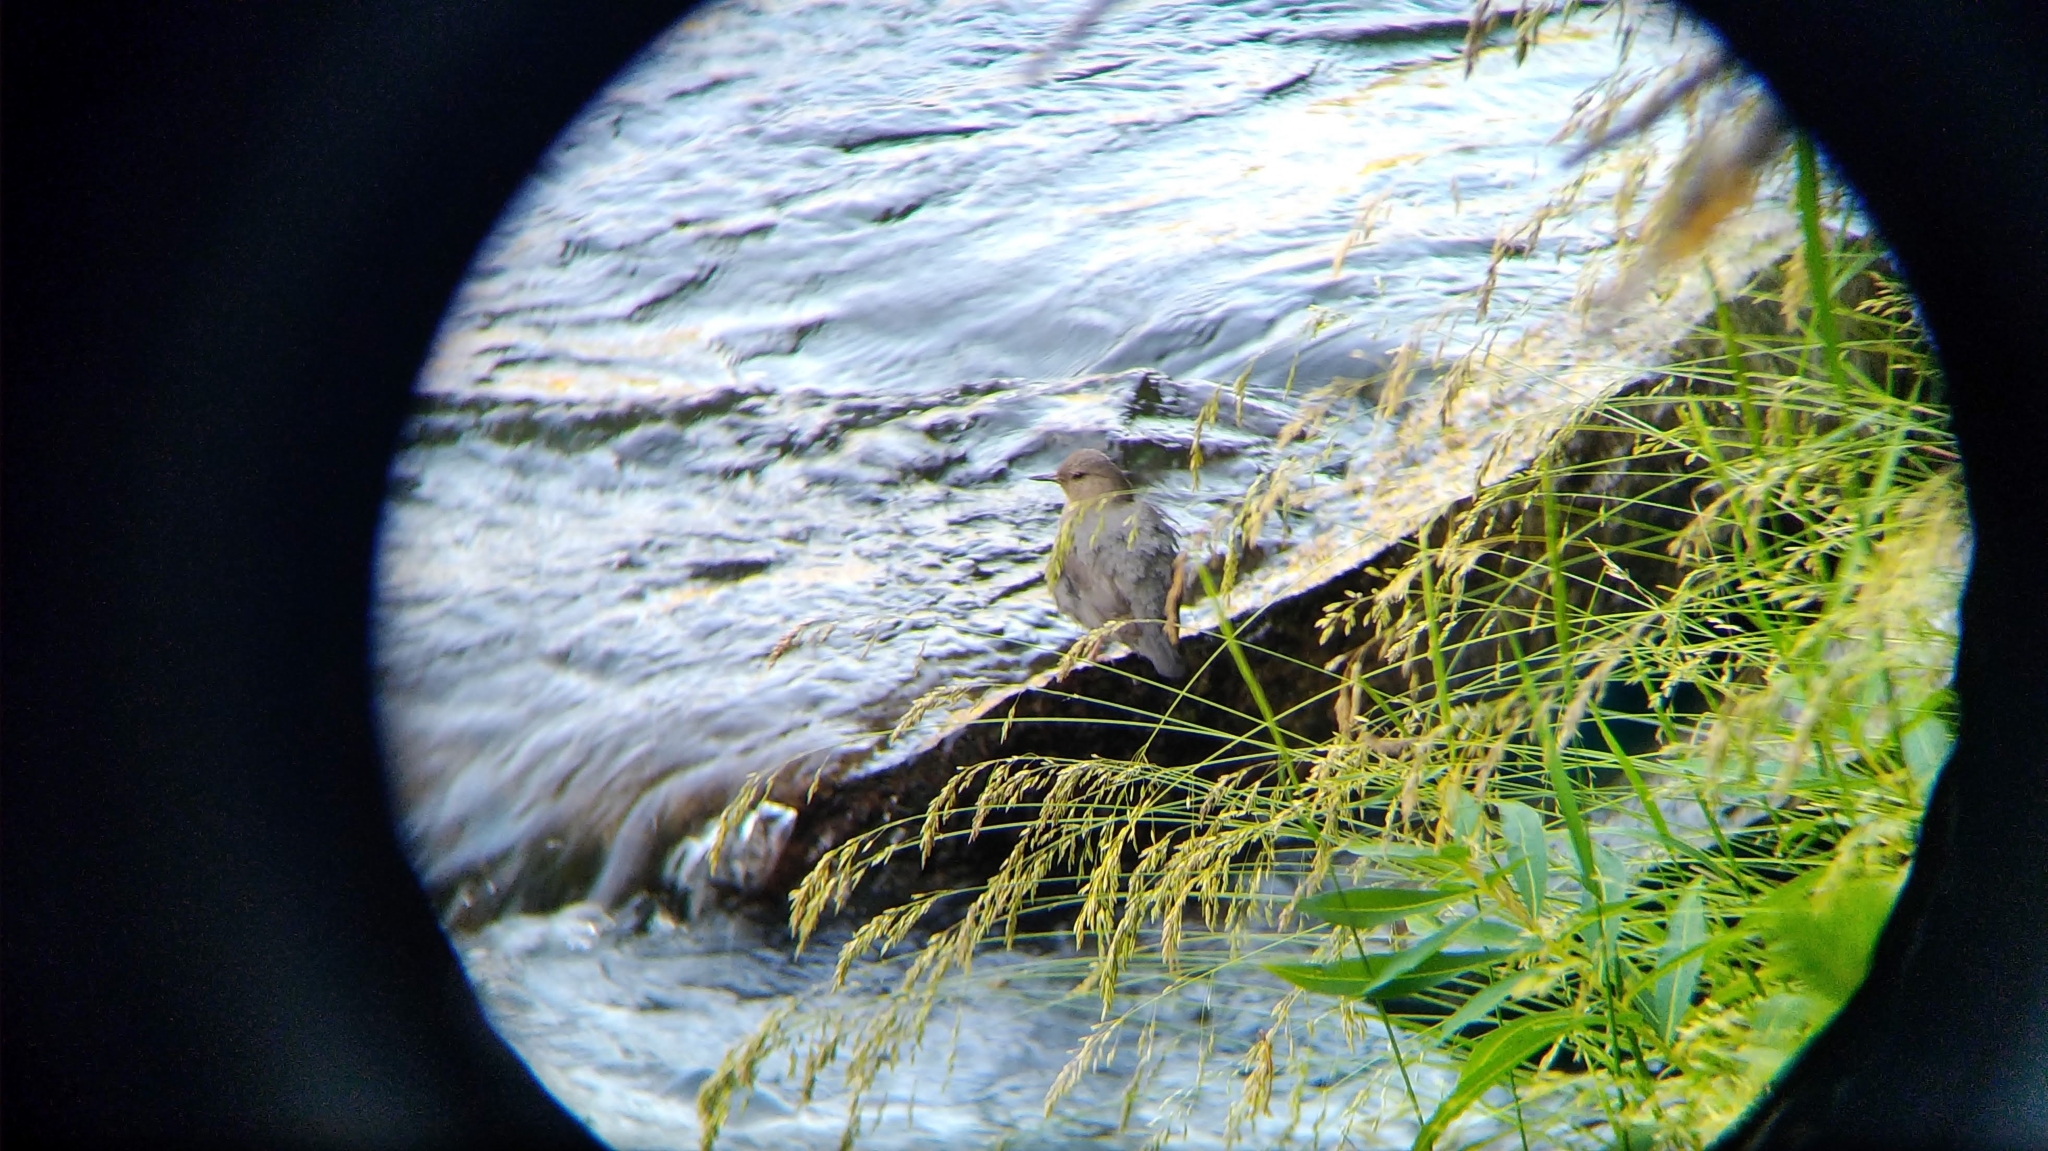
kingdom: Animalia
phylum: Chordata
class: Aves
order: Passeriformes
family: Cinclidae
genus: Cinclus
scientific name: Cinclus mexicanus
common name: American dipper
